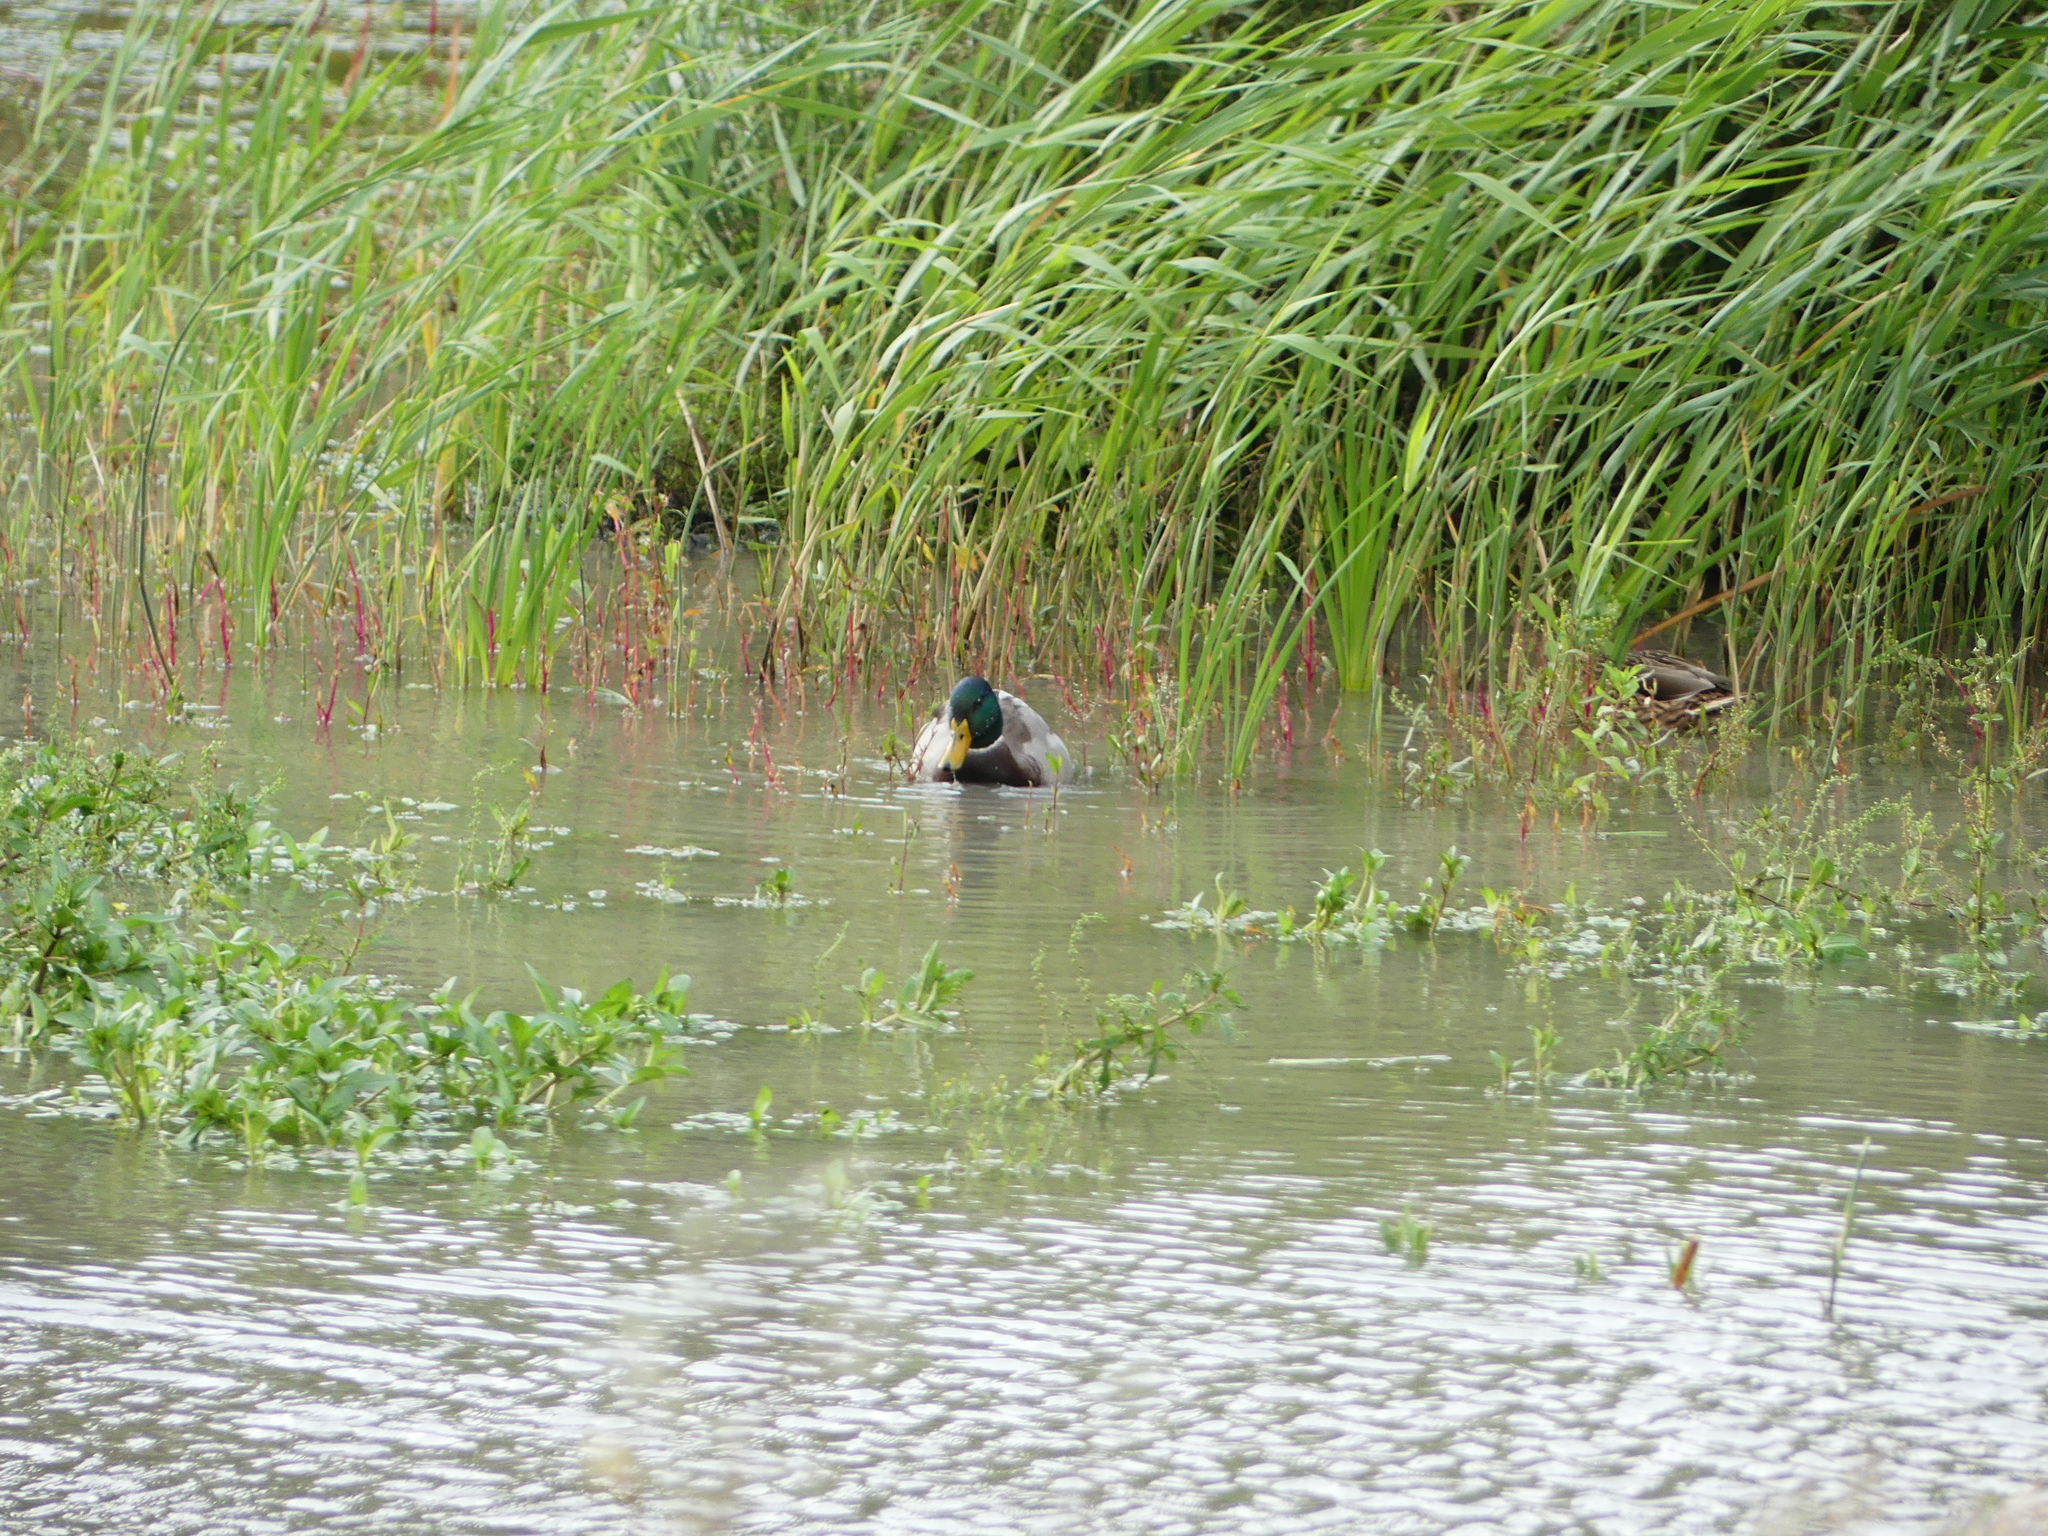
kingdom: Animalia
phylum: Chordata
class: Aves
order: Anseriformes
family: Anatidae
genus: Anas
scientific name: Anas platyrhynchos
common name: Mallard
